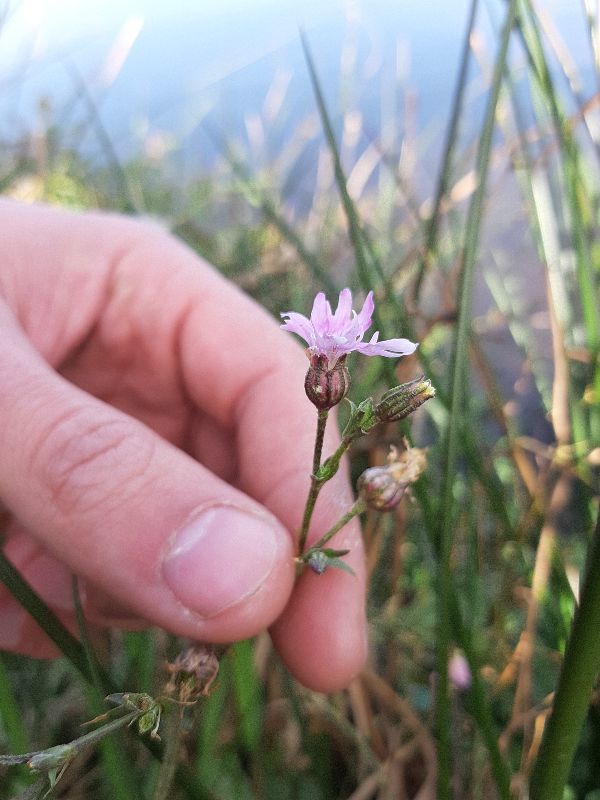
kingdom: Plantae
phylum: Tracheophyta
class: Magnoliopsida
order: Caryophyllales
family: Caryophyllaceae
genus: Silene
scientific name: Silene flos-cuculi
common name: Ragged-robin
